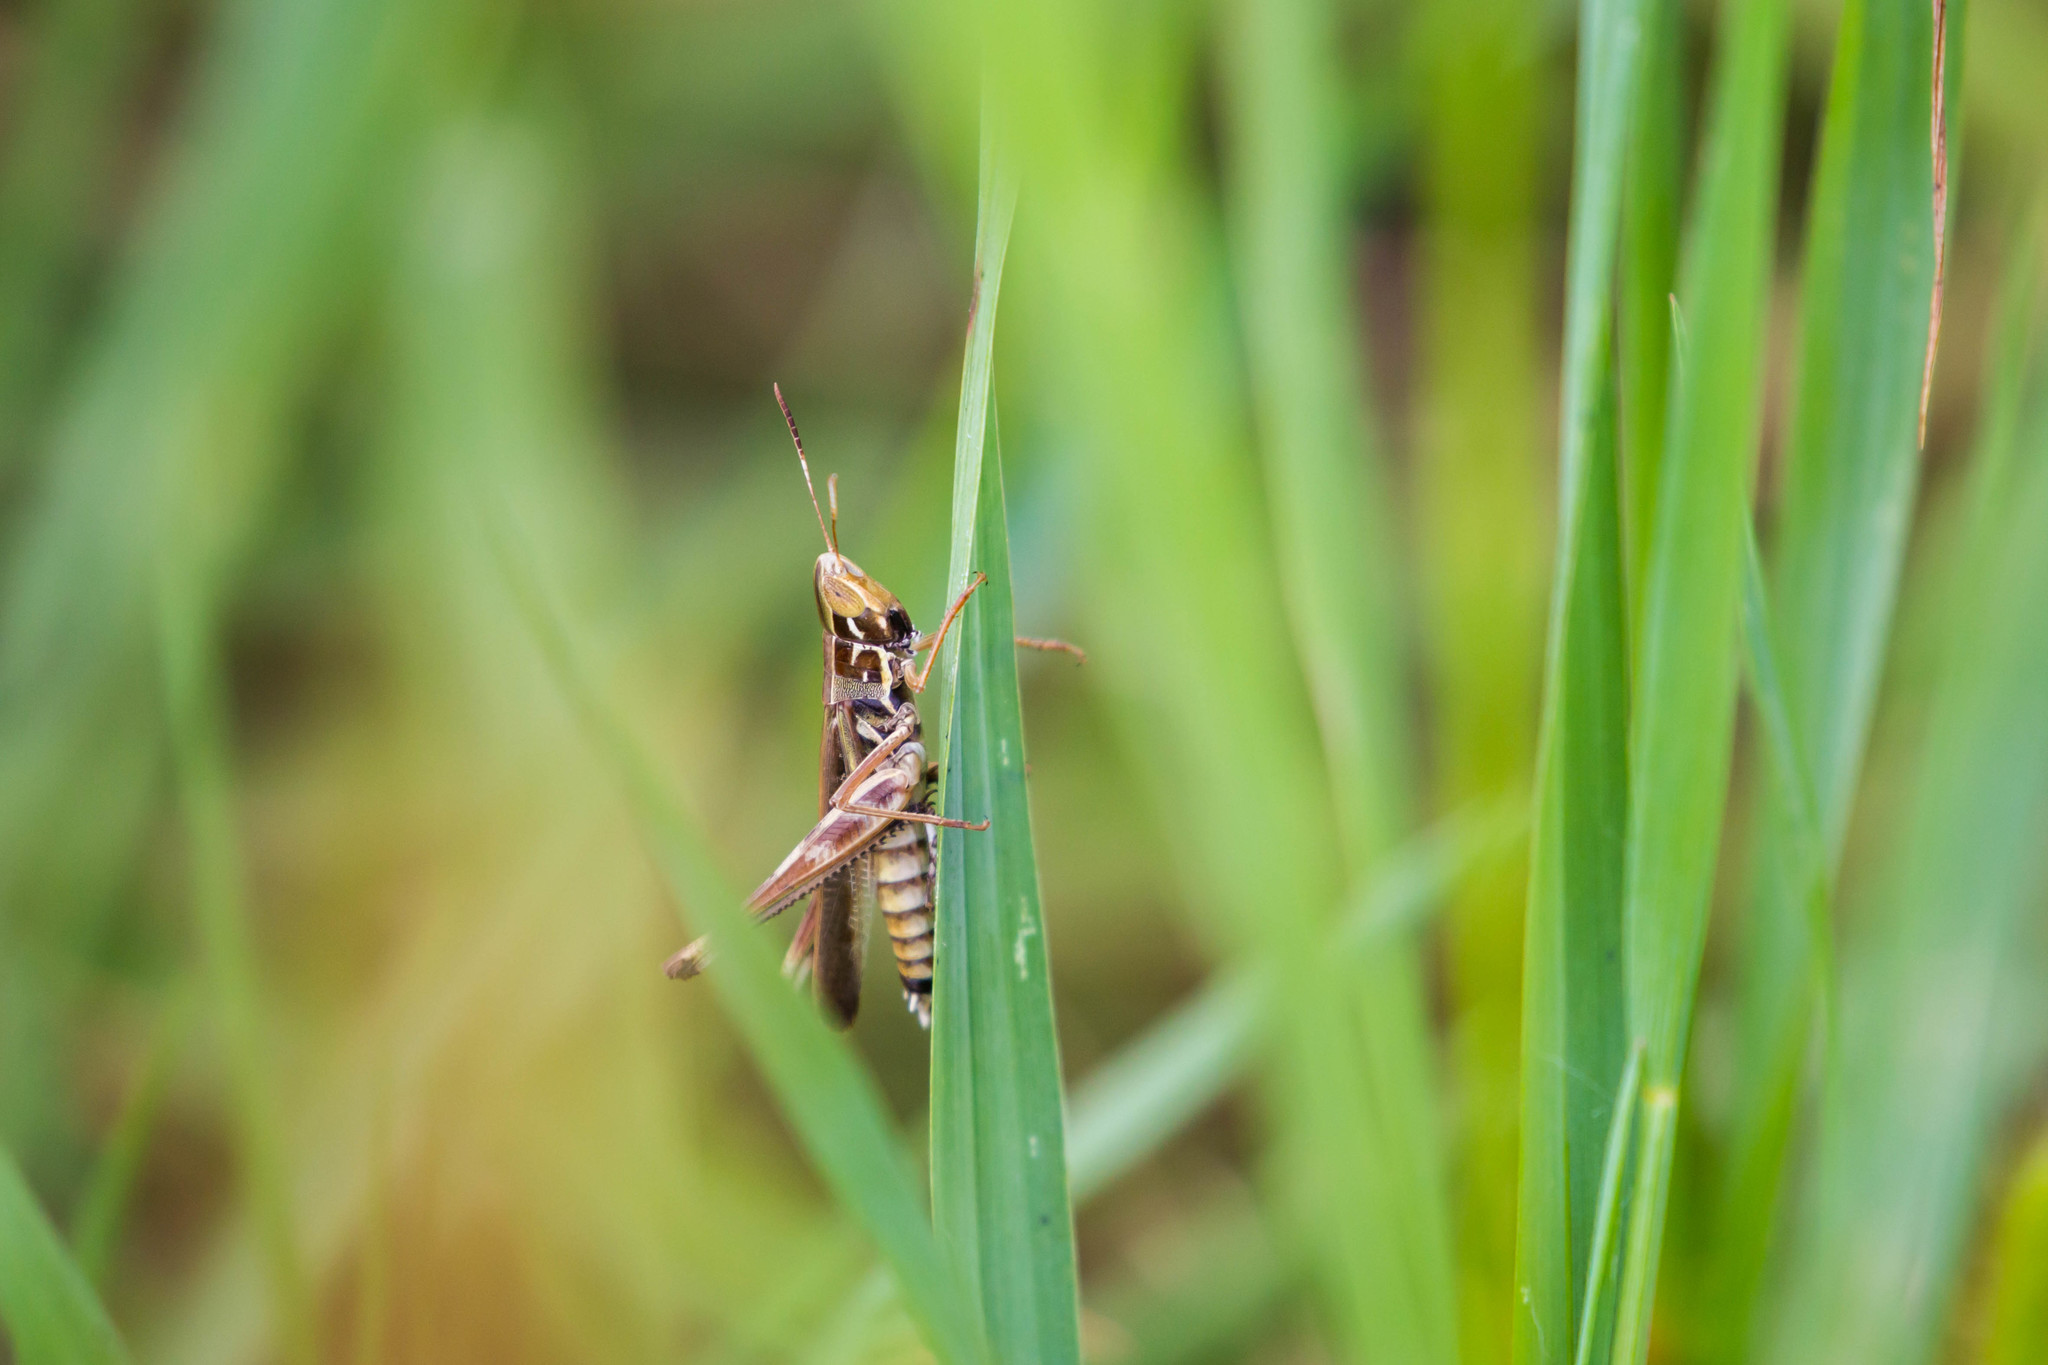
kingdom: Animalia
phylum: Arthropoda
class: Insecta
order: Orthoptera
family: Acrididae
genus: Syrbula
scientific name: Syrbula admirabilis
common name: Handsome grasshopper
